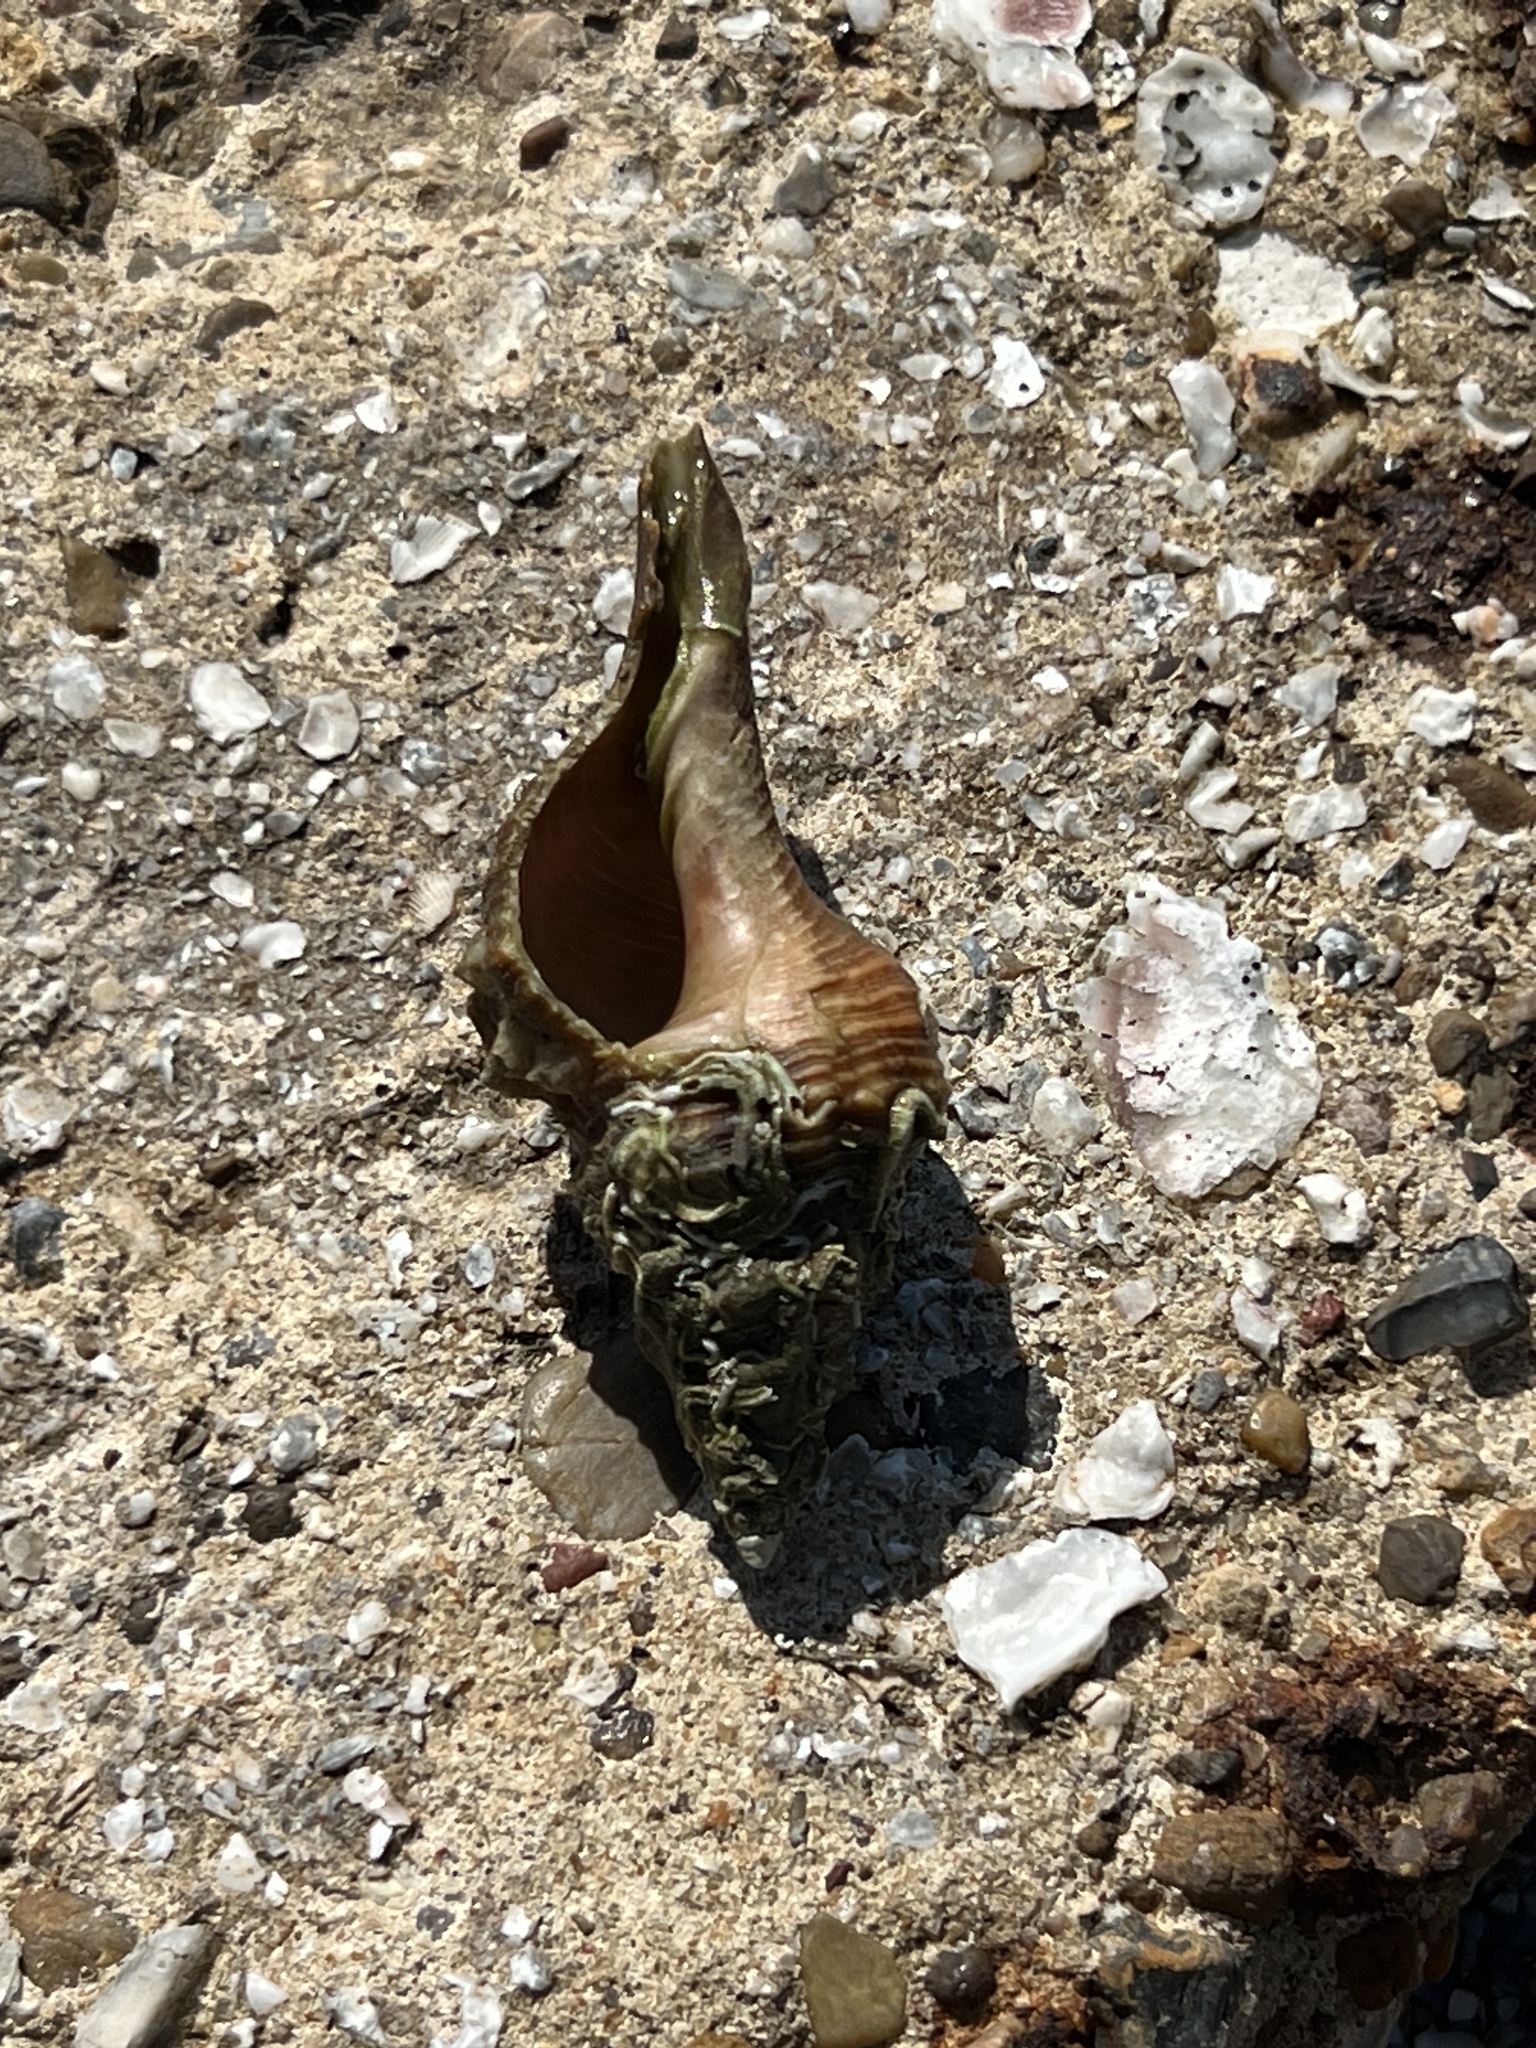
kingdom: Animalia
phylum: Mollusca
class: Gastropoda
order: Neogastropoda
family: Fasciolariidae
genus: Triplofusus
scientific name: Triplofusus giganteus
